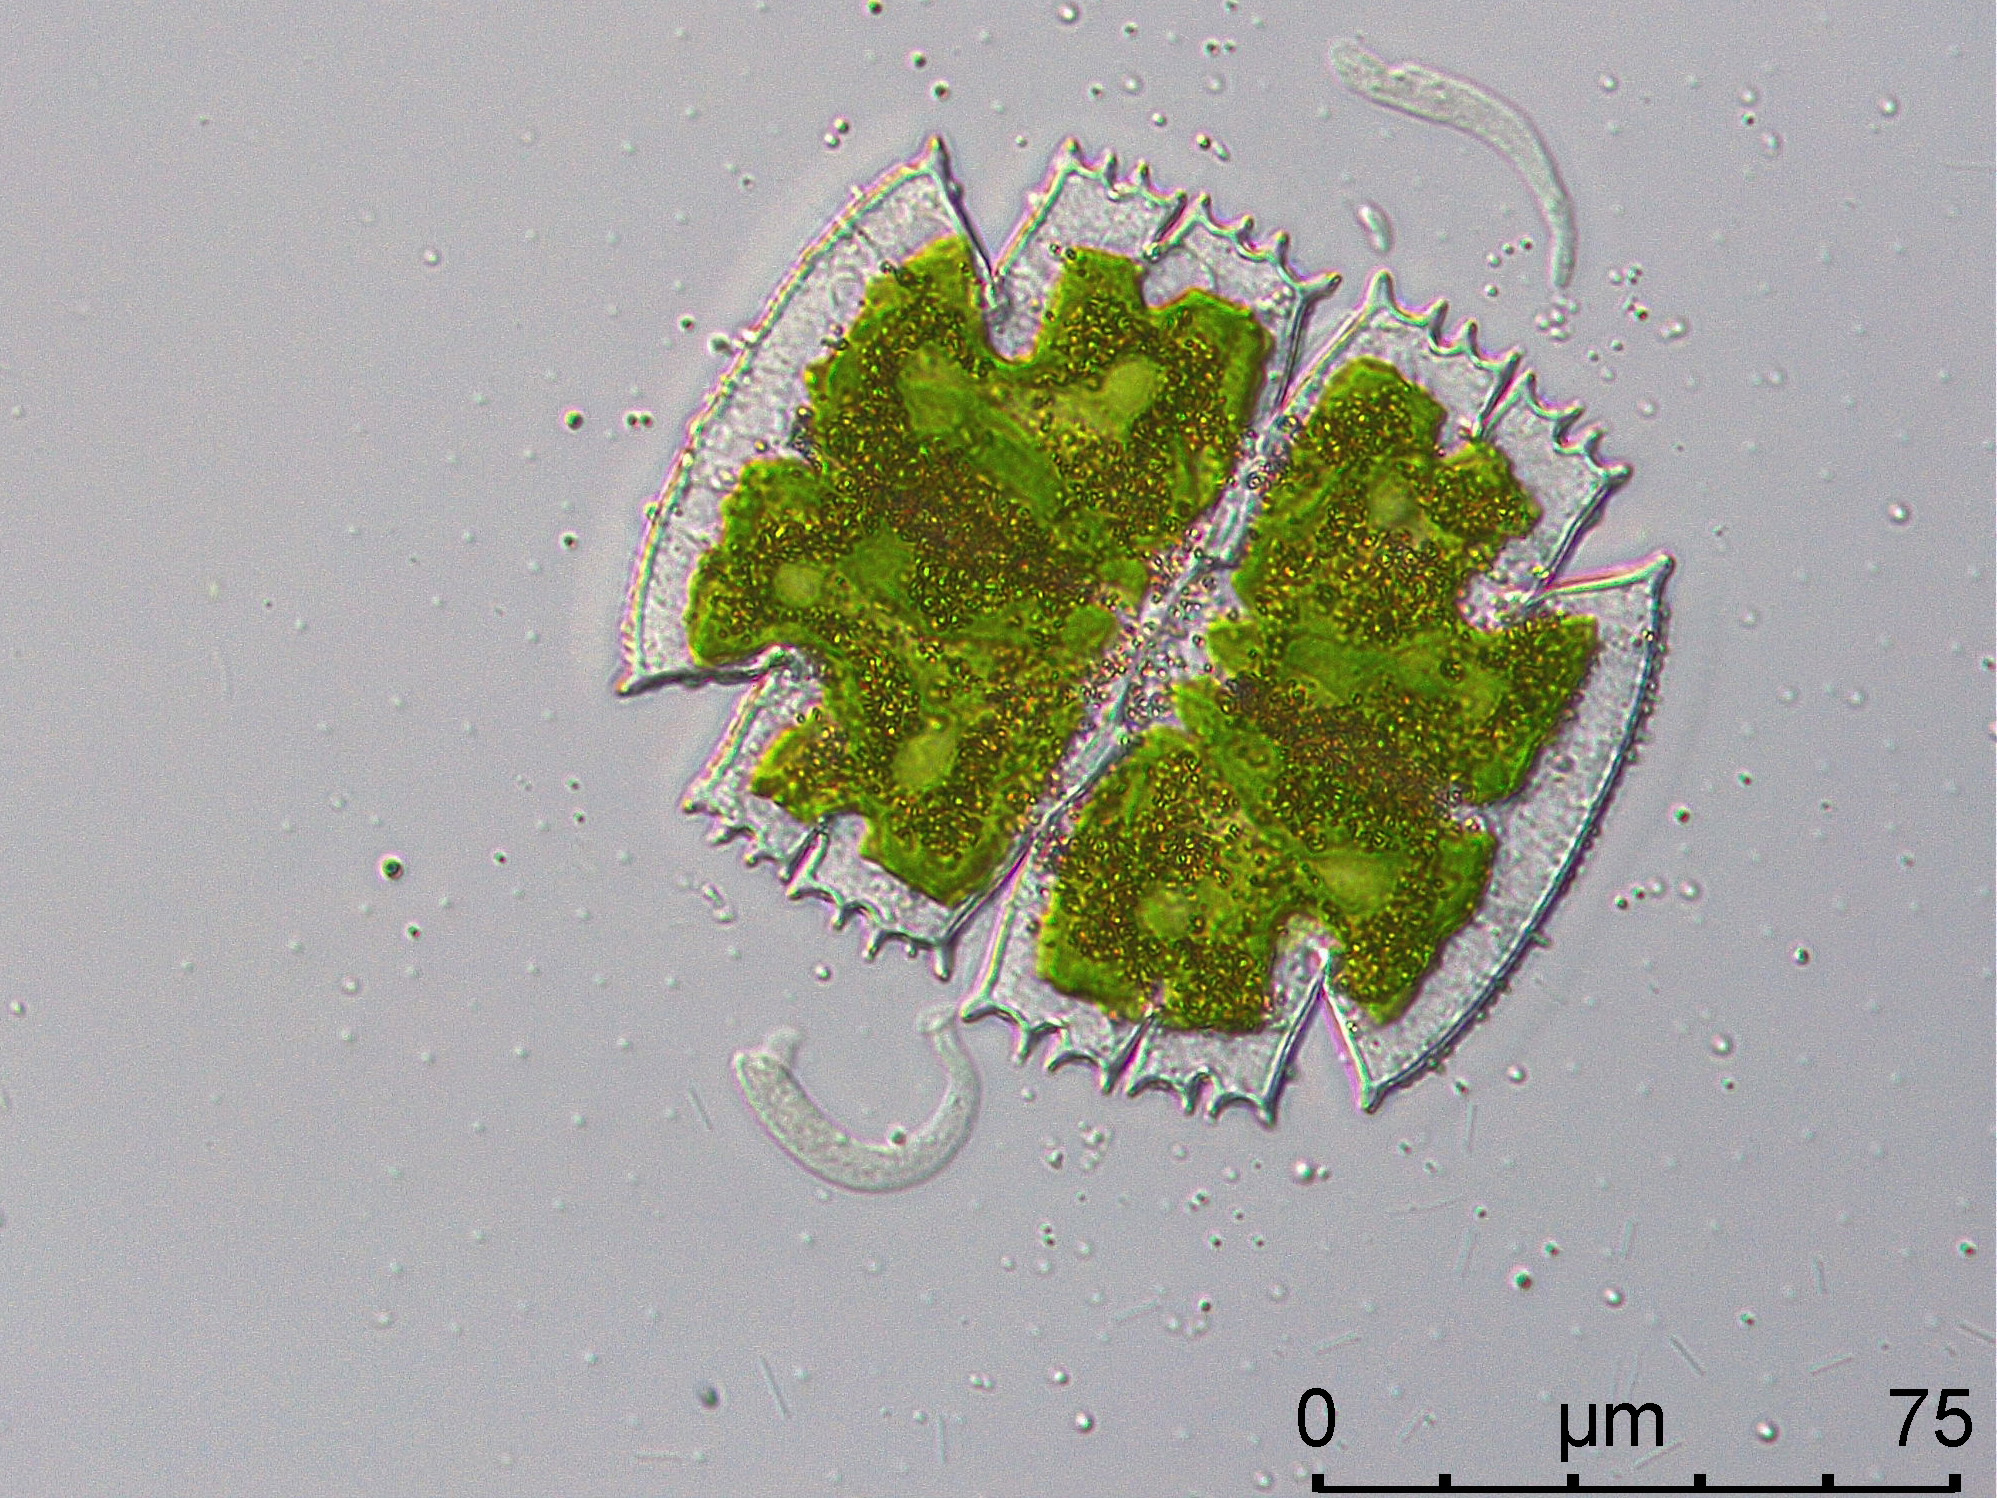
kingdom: Plantae
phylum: Charophyta
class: Conjugatophyceae
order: Desmidiales
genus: Micrasterias
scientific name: Micrasterias truncata
